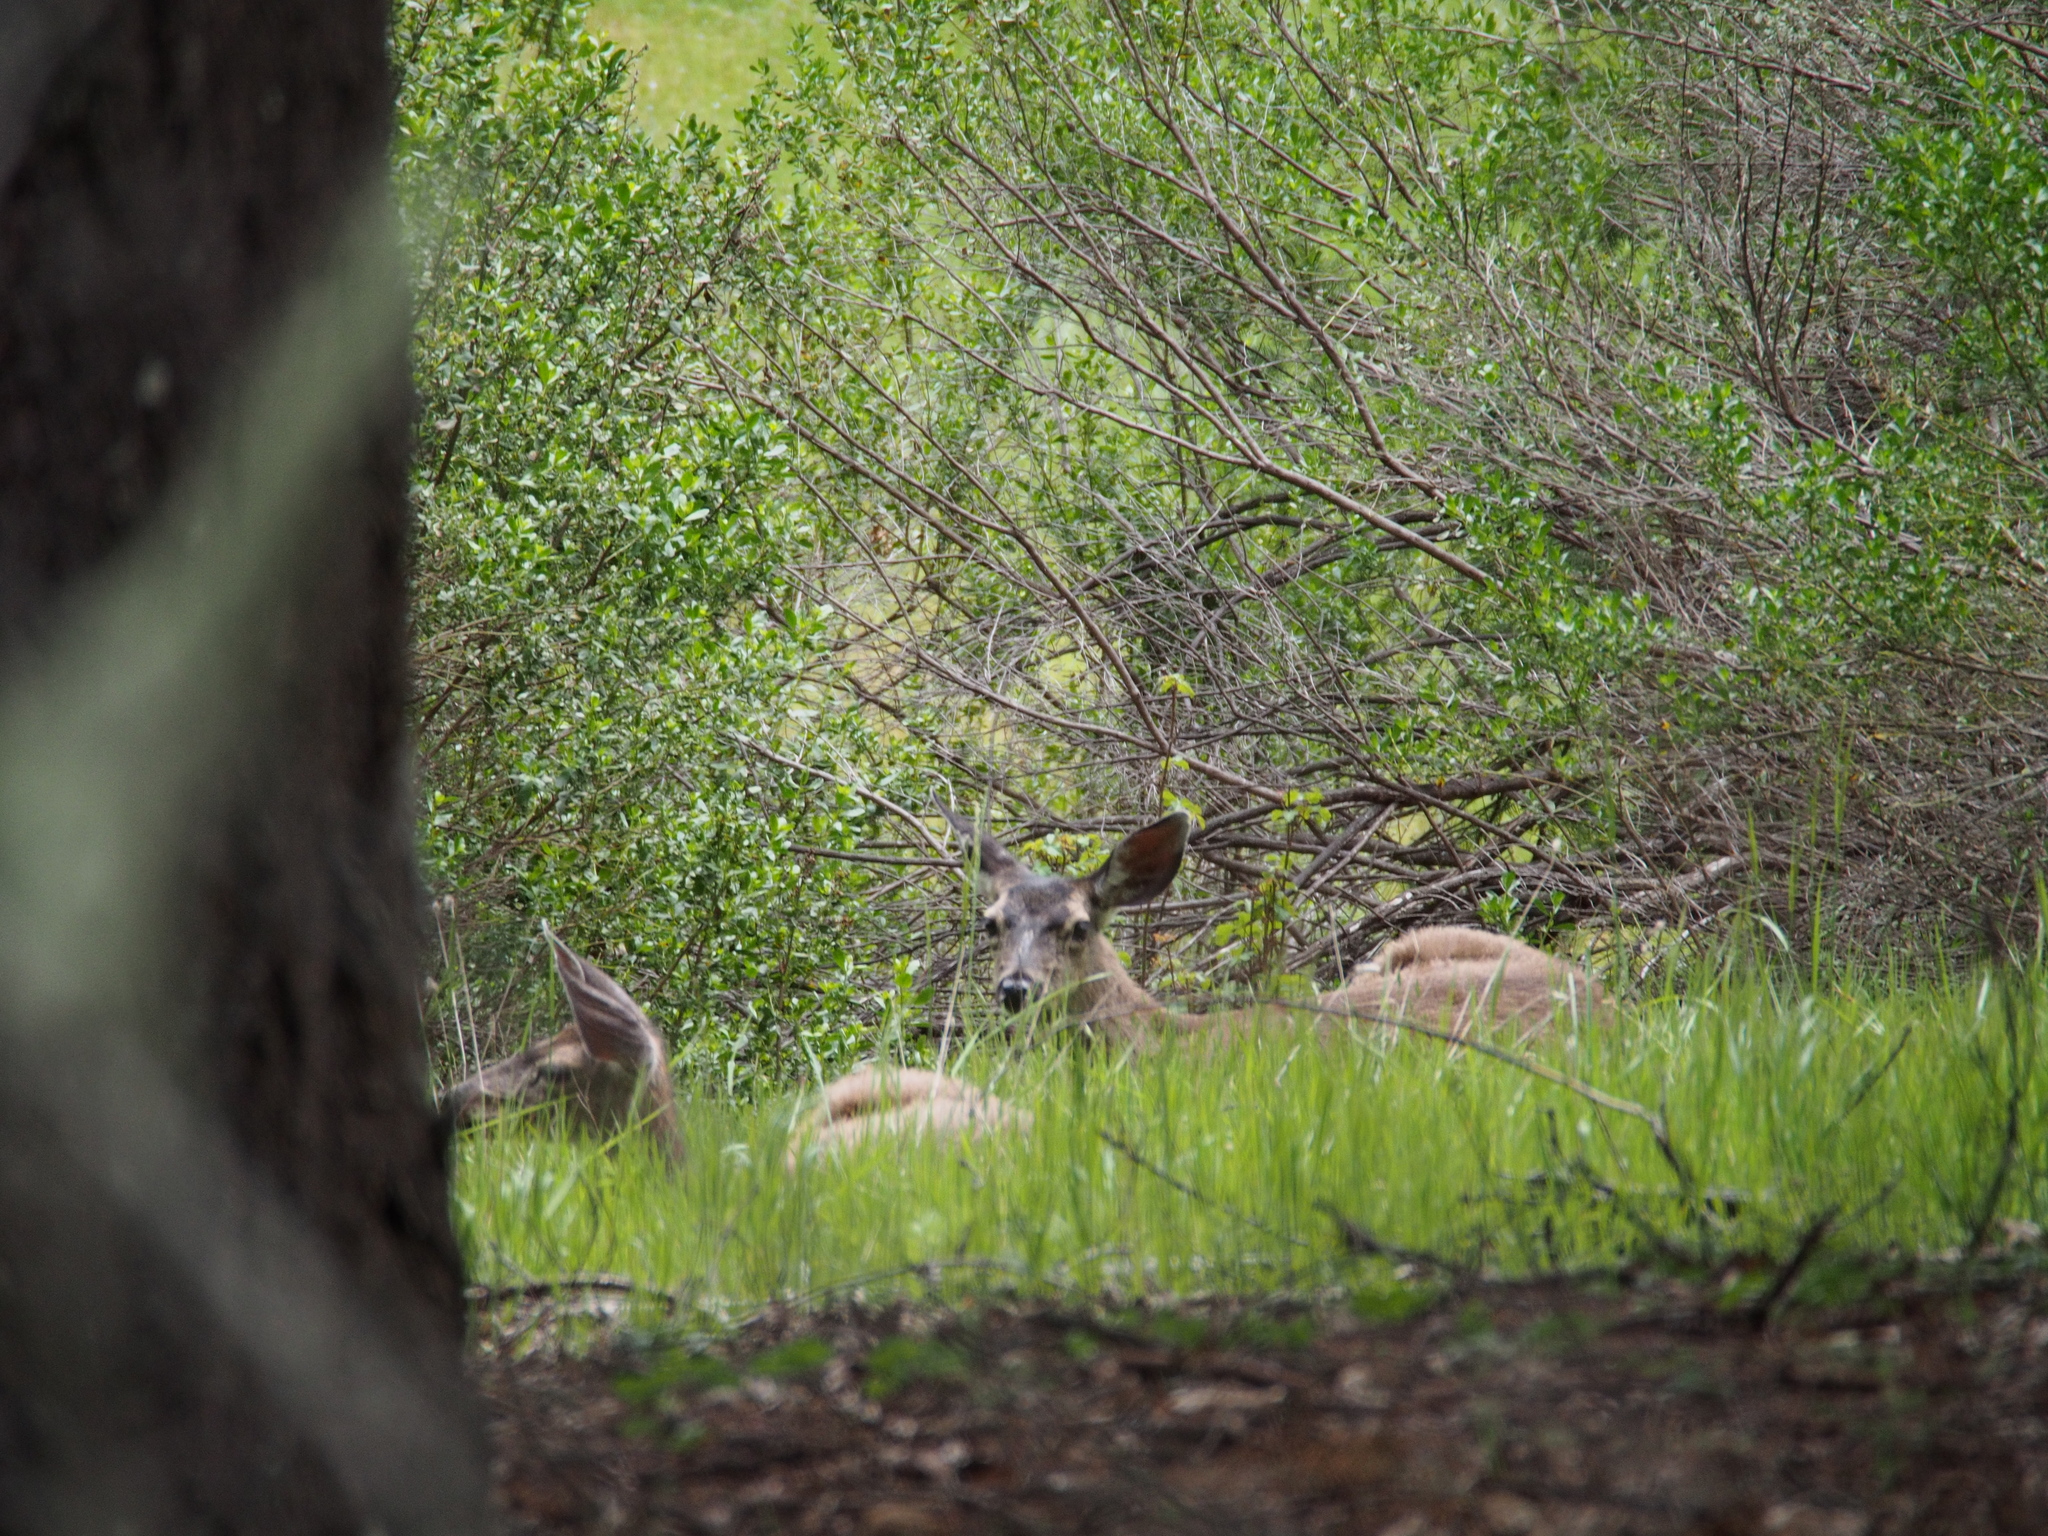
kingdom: Animalia
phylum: Chordata
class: Mammalia
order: Artiodactyla
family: Cervidae
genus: Odocoileus
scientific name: Odocoileus hemionus
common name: Mule deer
